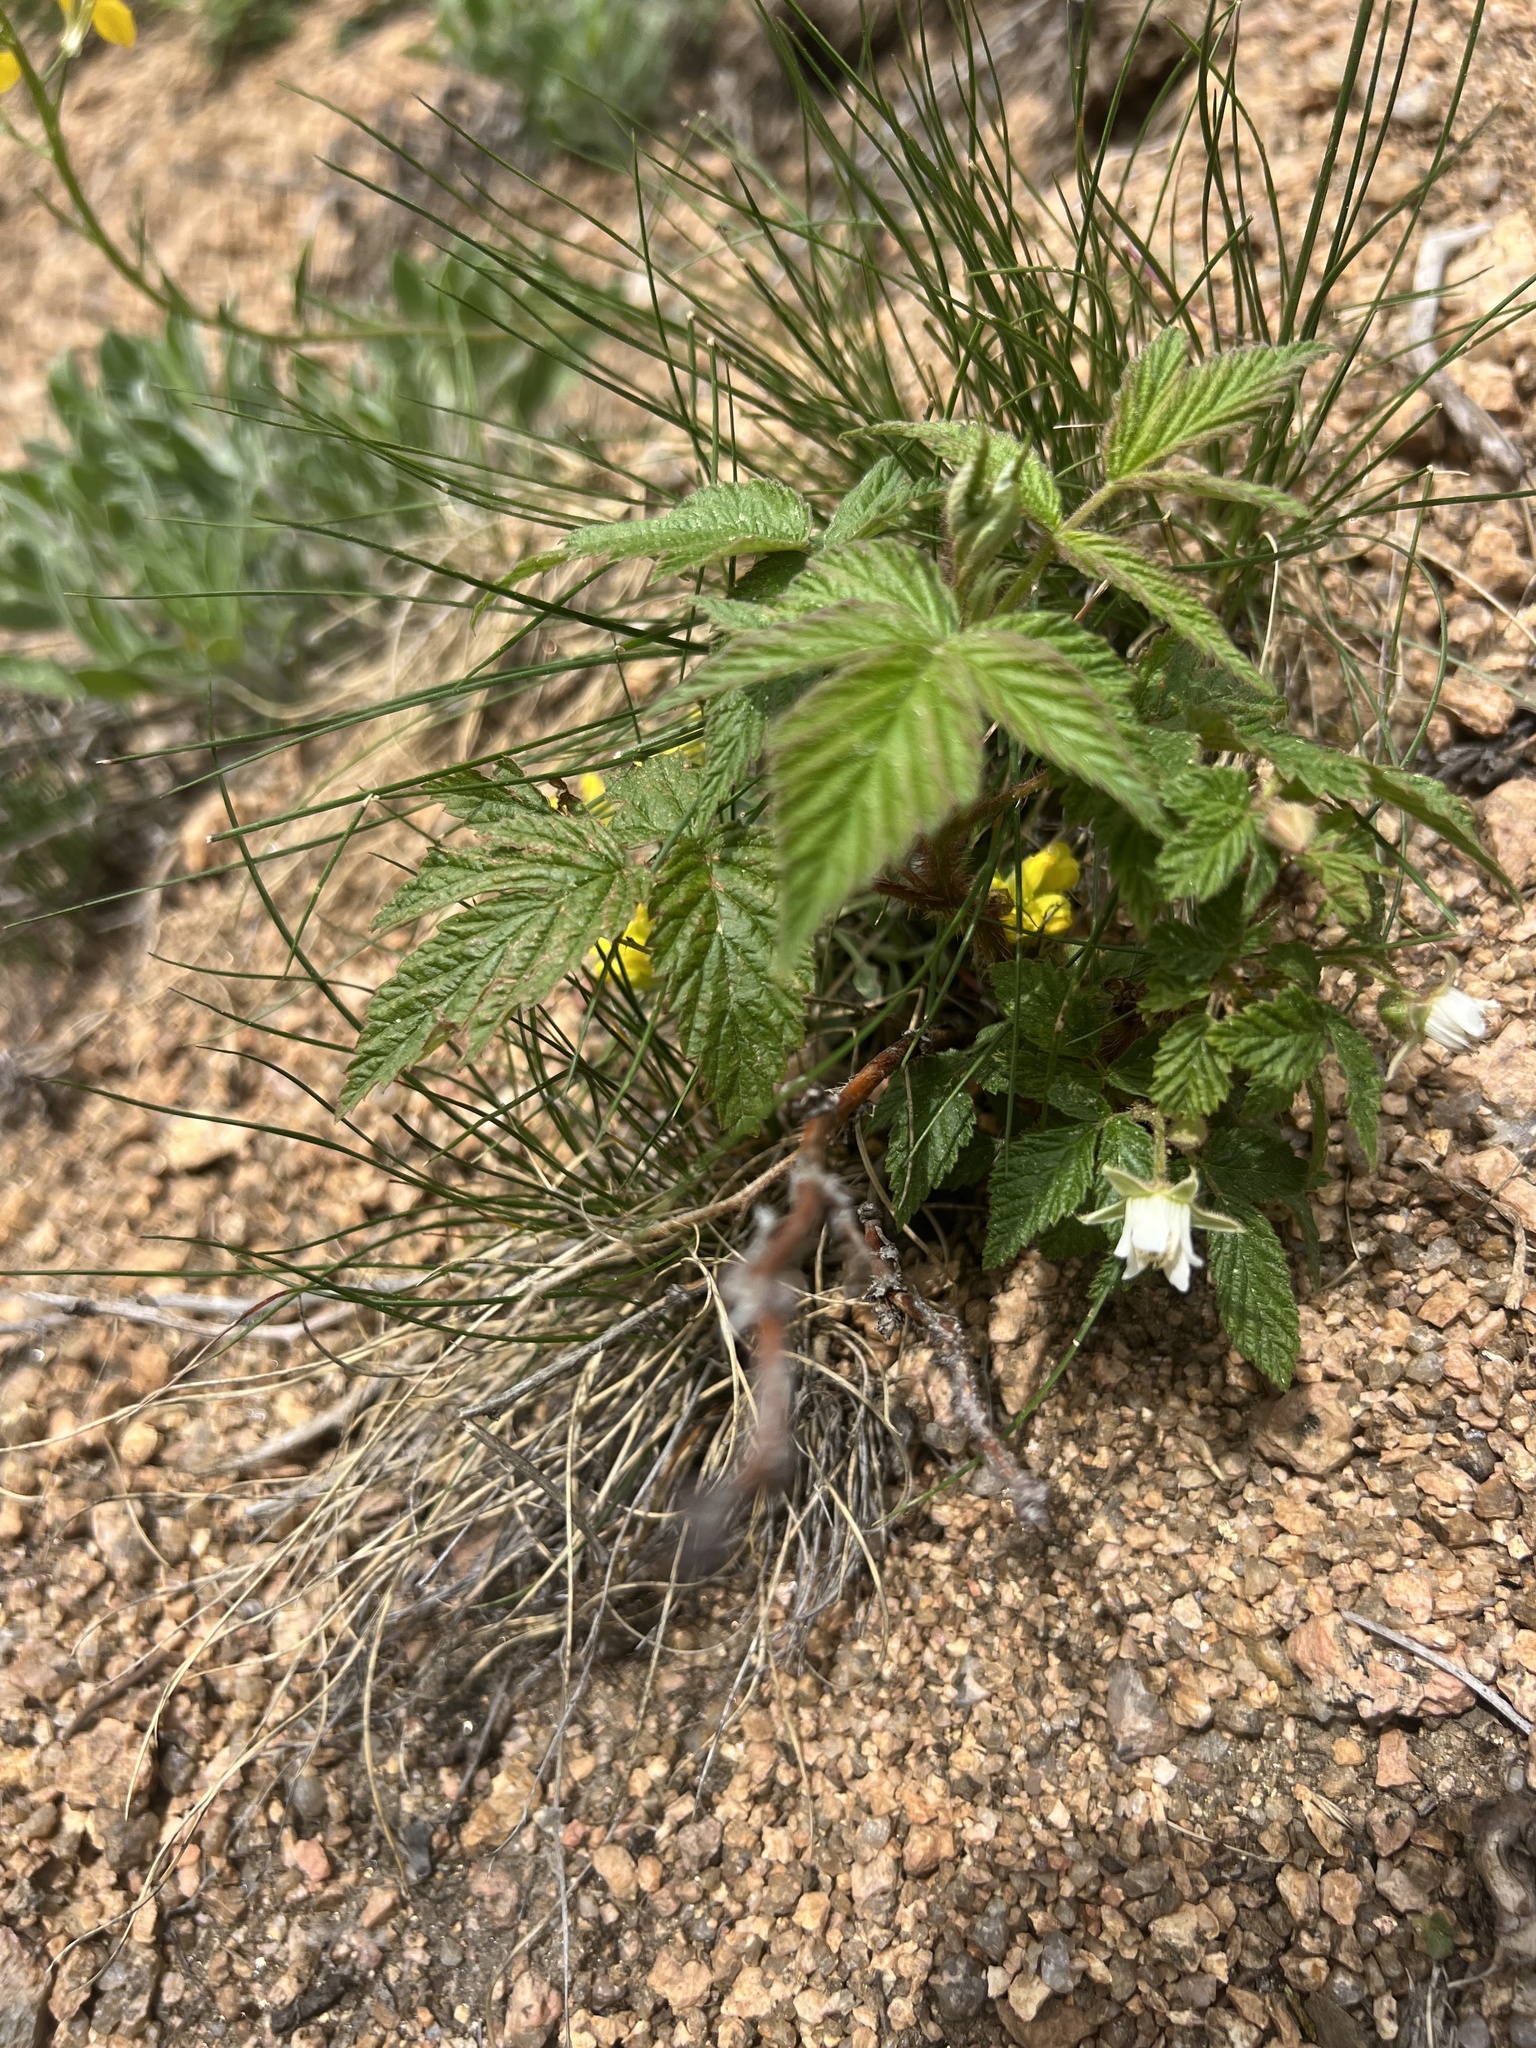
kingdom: Plantae
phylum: Tracheophyta
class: Magnoliopsida
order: Rosales
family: Rosaceae
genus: Rubus
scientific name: Rubus deliciosus
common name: Rocky mountain raspberry
